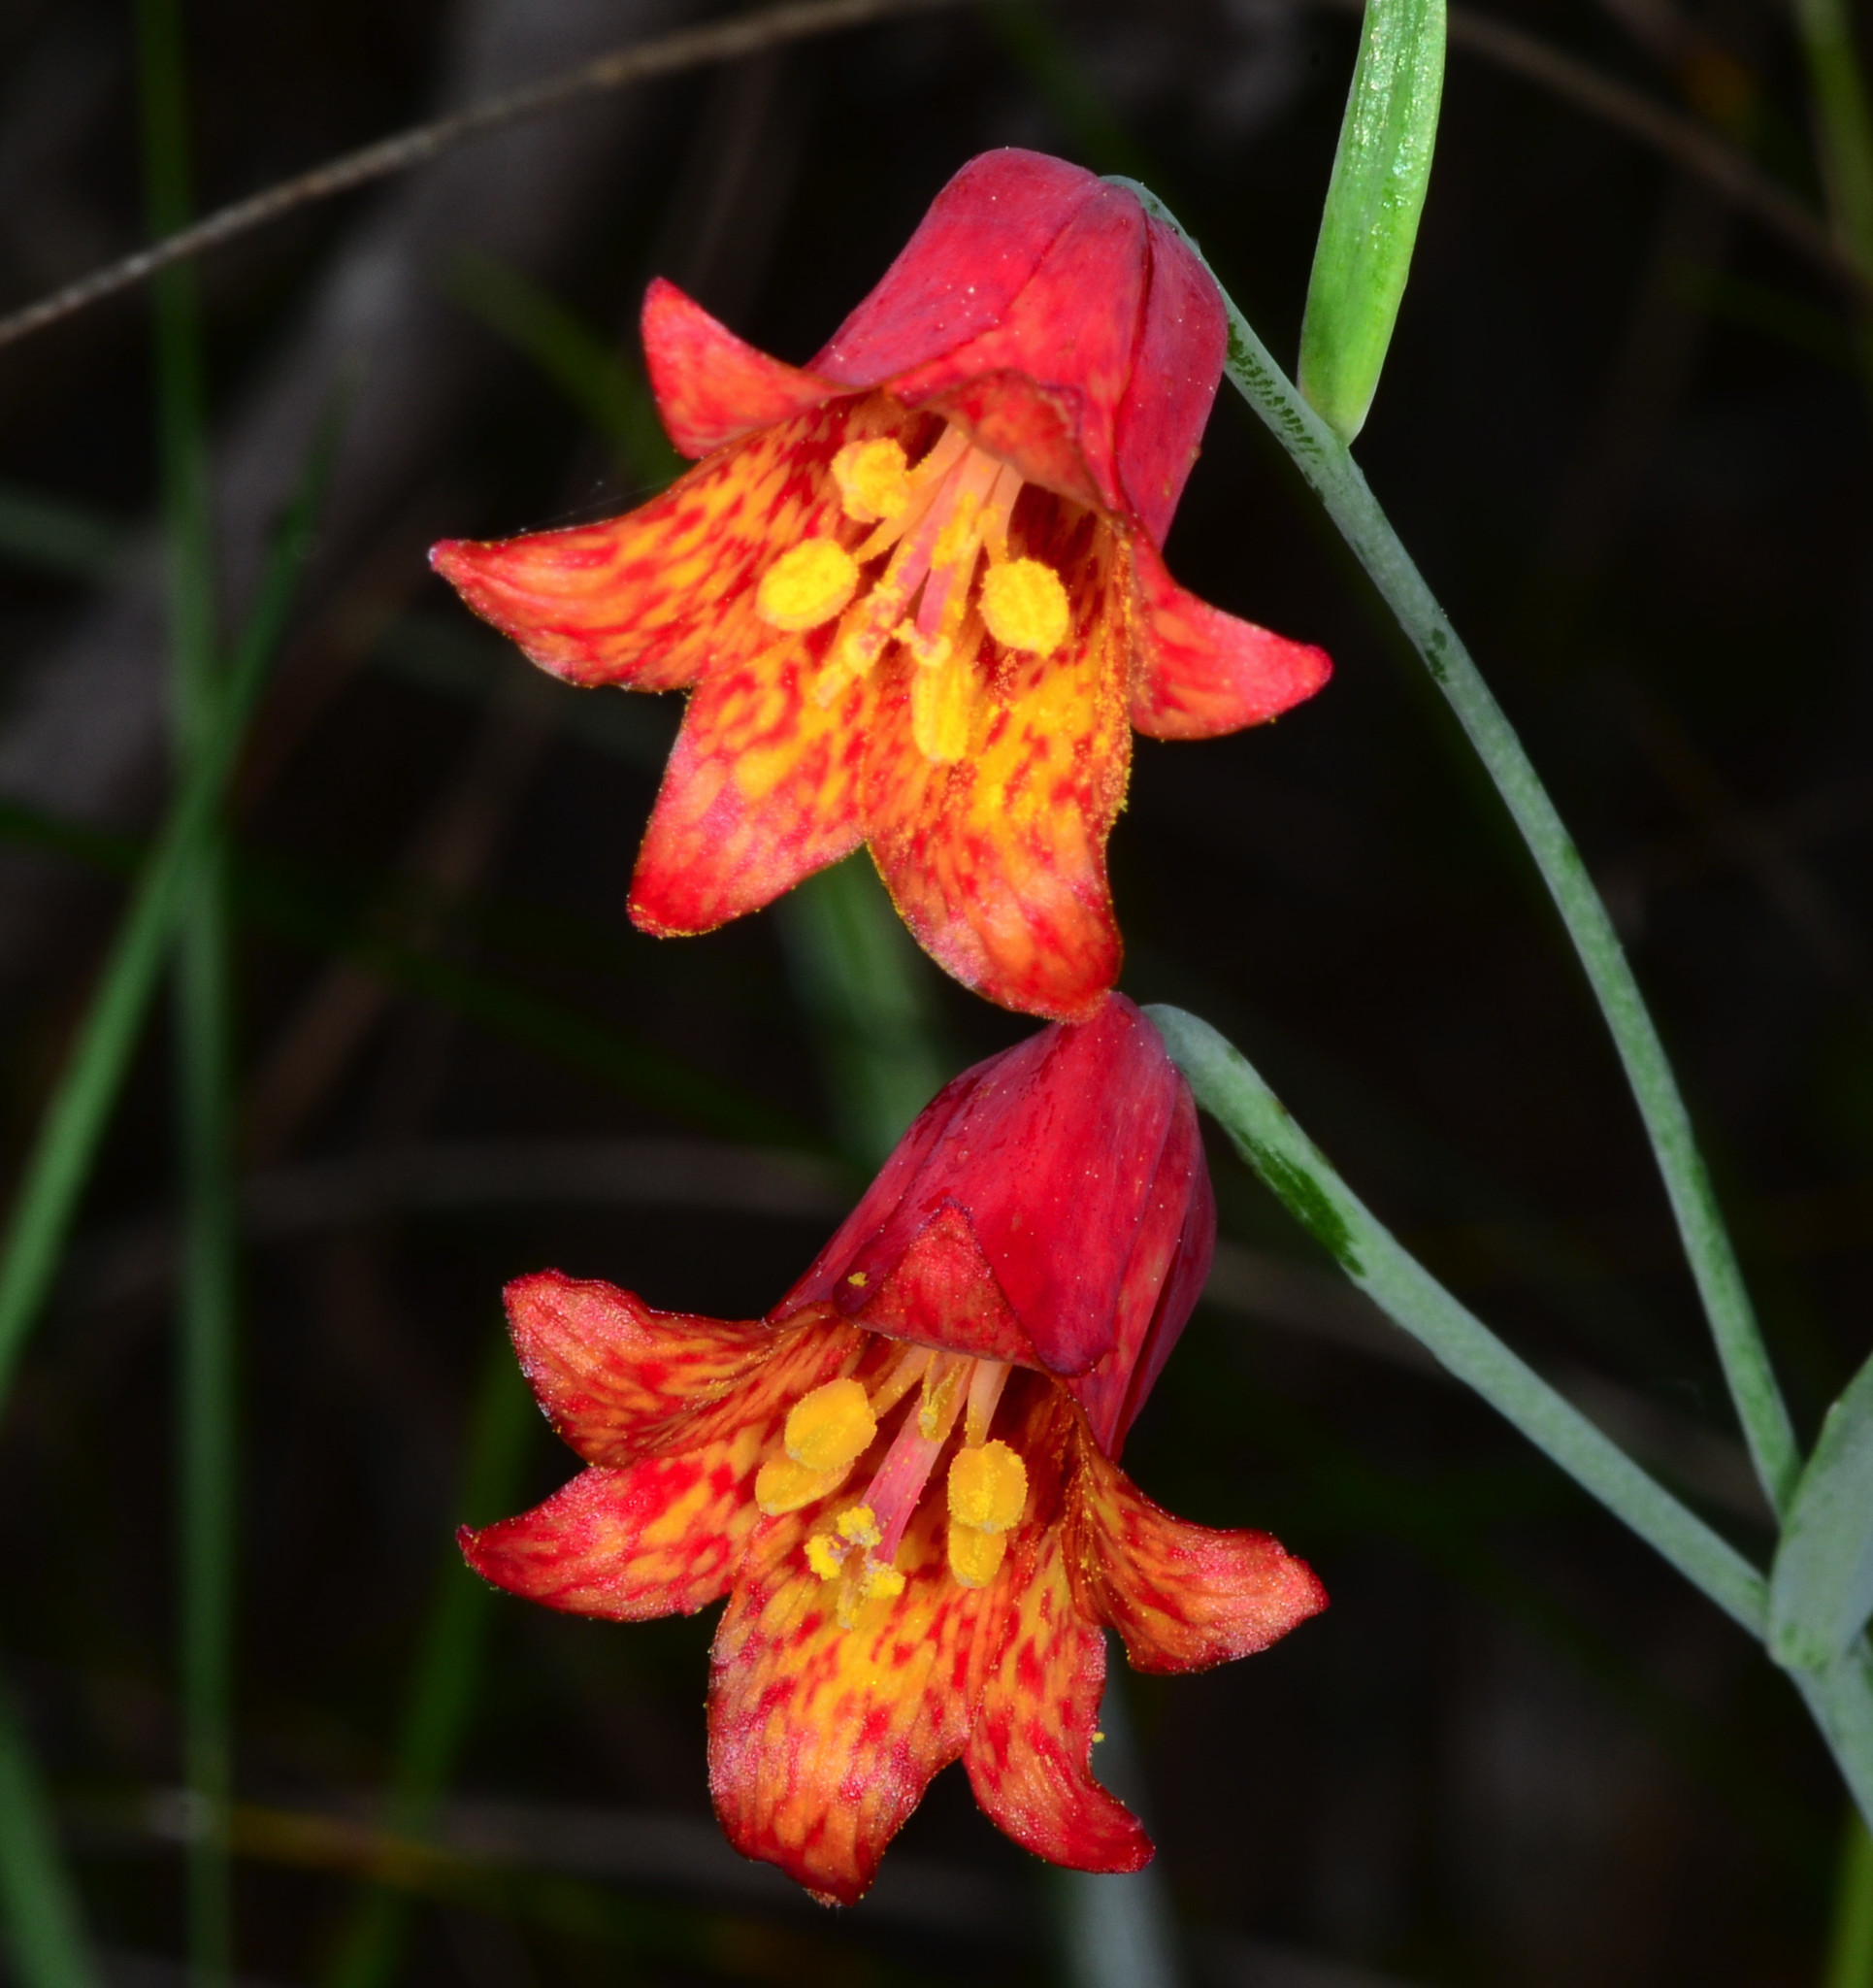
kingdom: Plantae
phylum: Tracheophyta
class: Liliopsida
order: Liliales
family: Liliaceae
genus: Fritillaria
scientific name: Fritillaria recurva
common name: Scarlet fritillary
